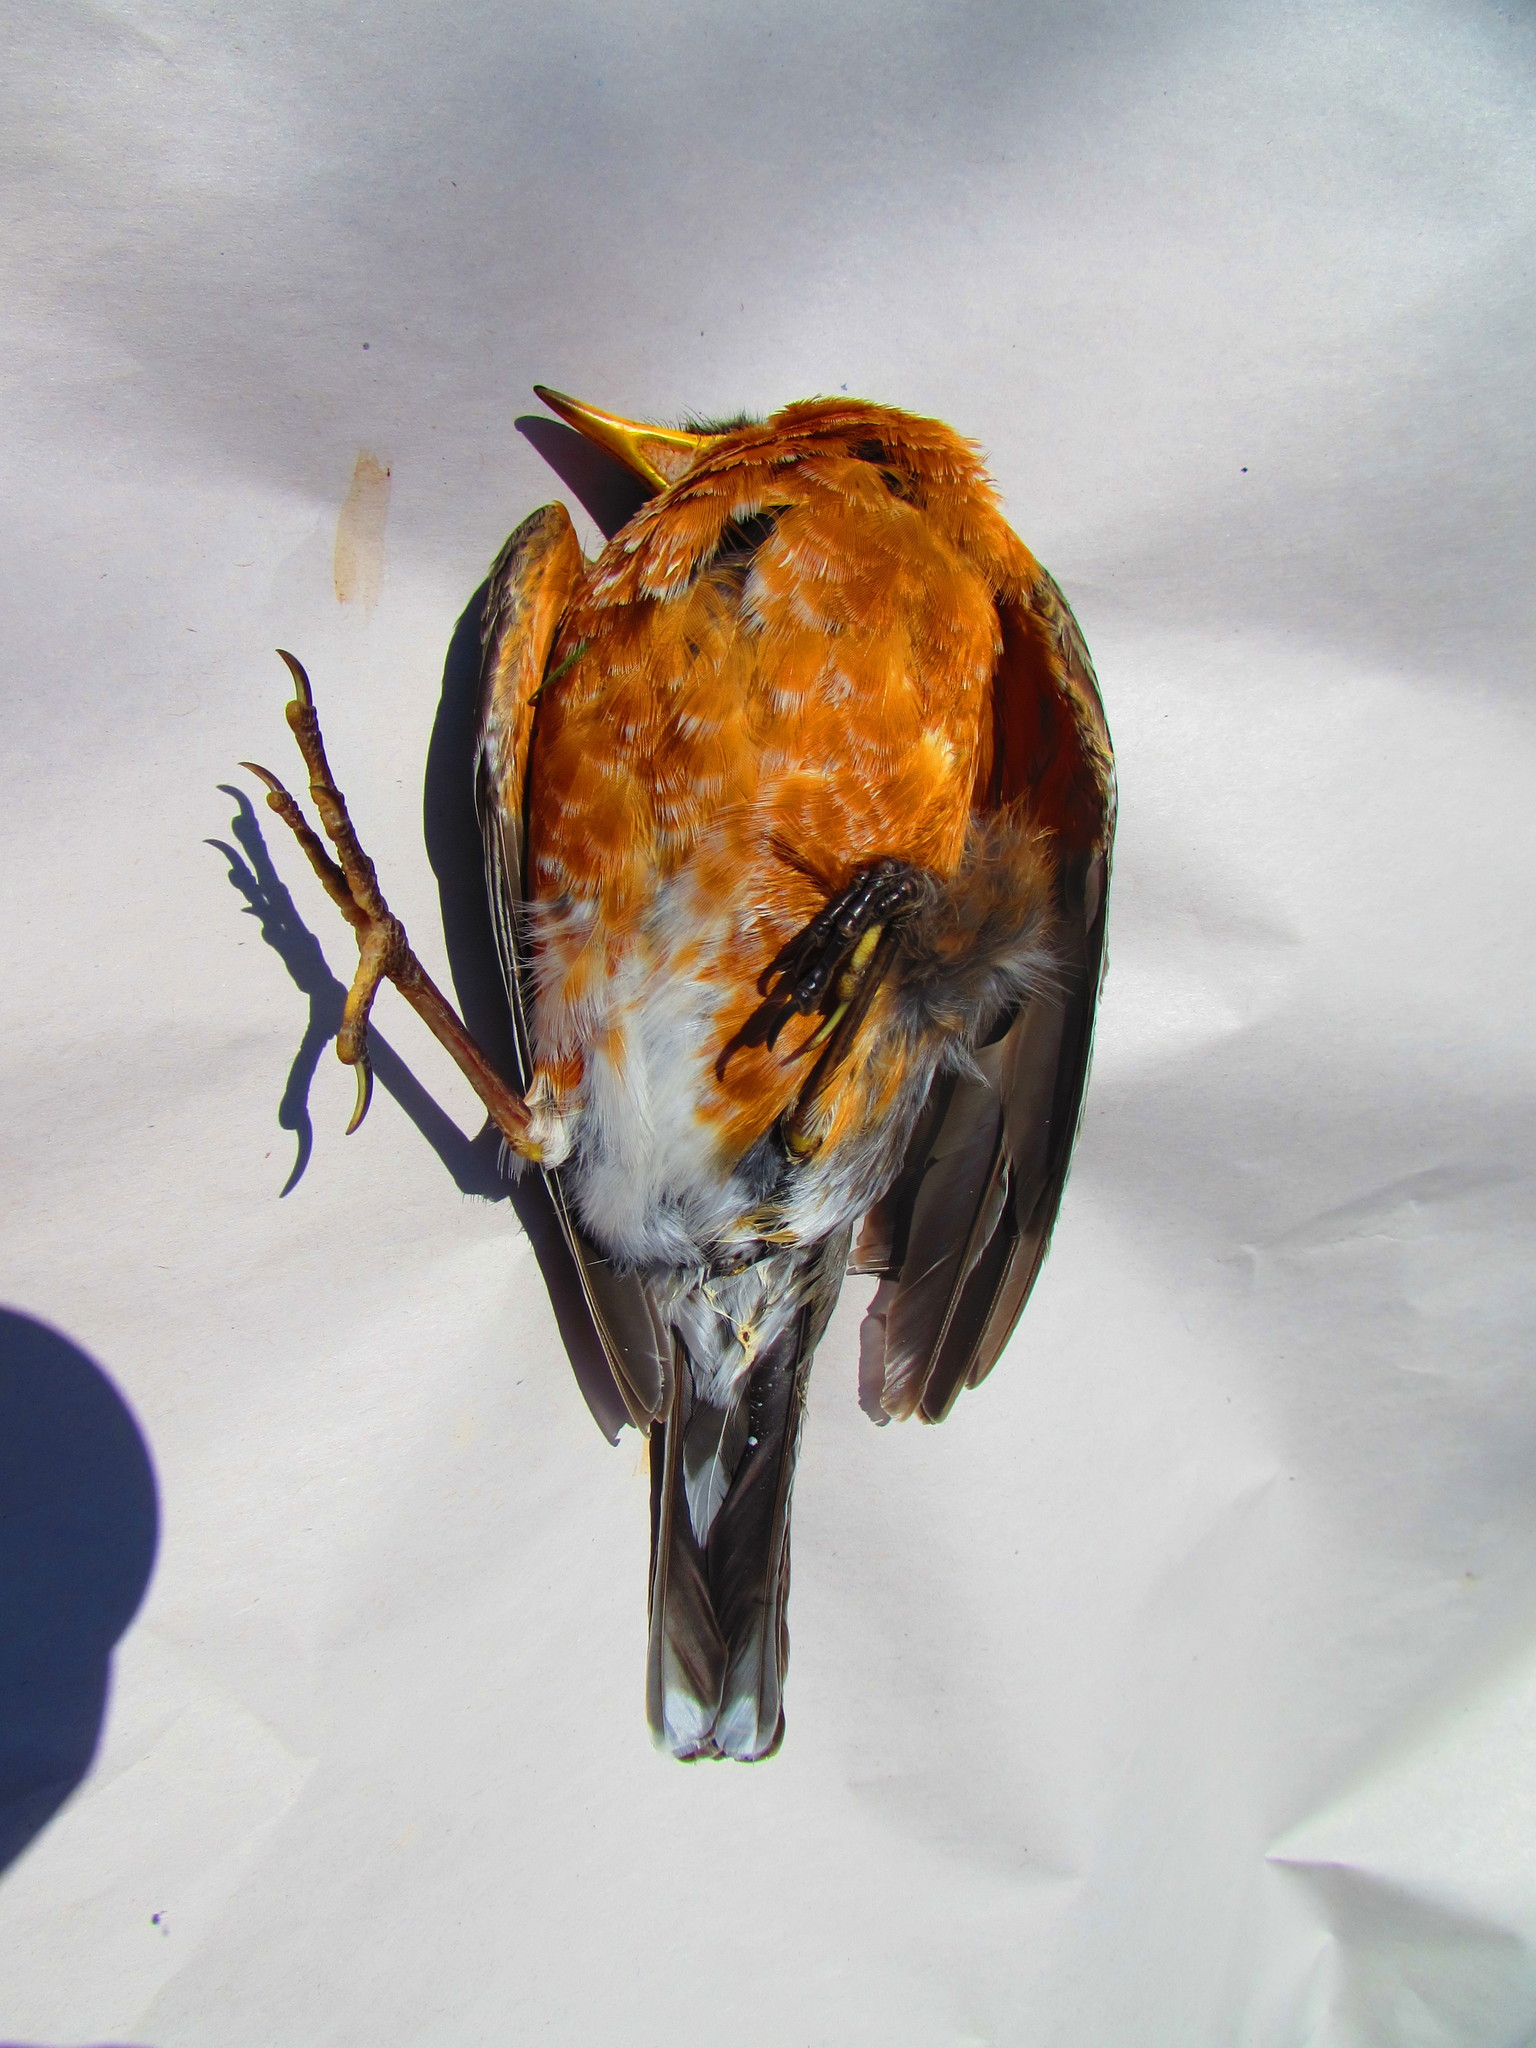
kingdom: Animalia
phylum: Chordata
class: Aves
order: Passeriformes
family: Turdidae
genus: Turdus
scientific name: Turdus migratorius
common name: American robin
